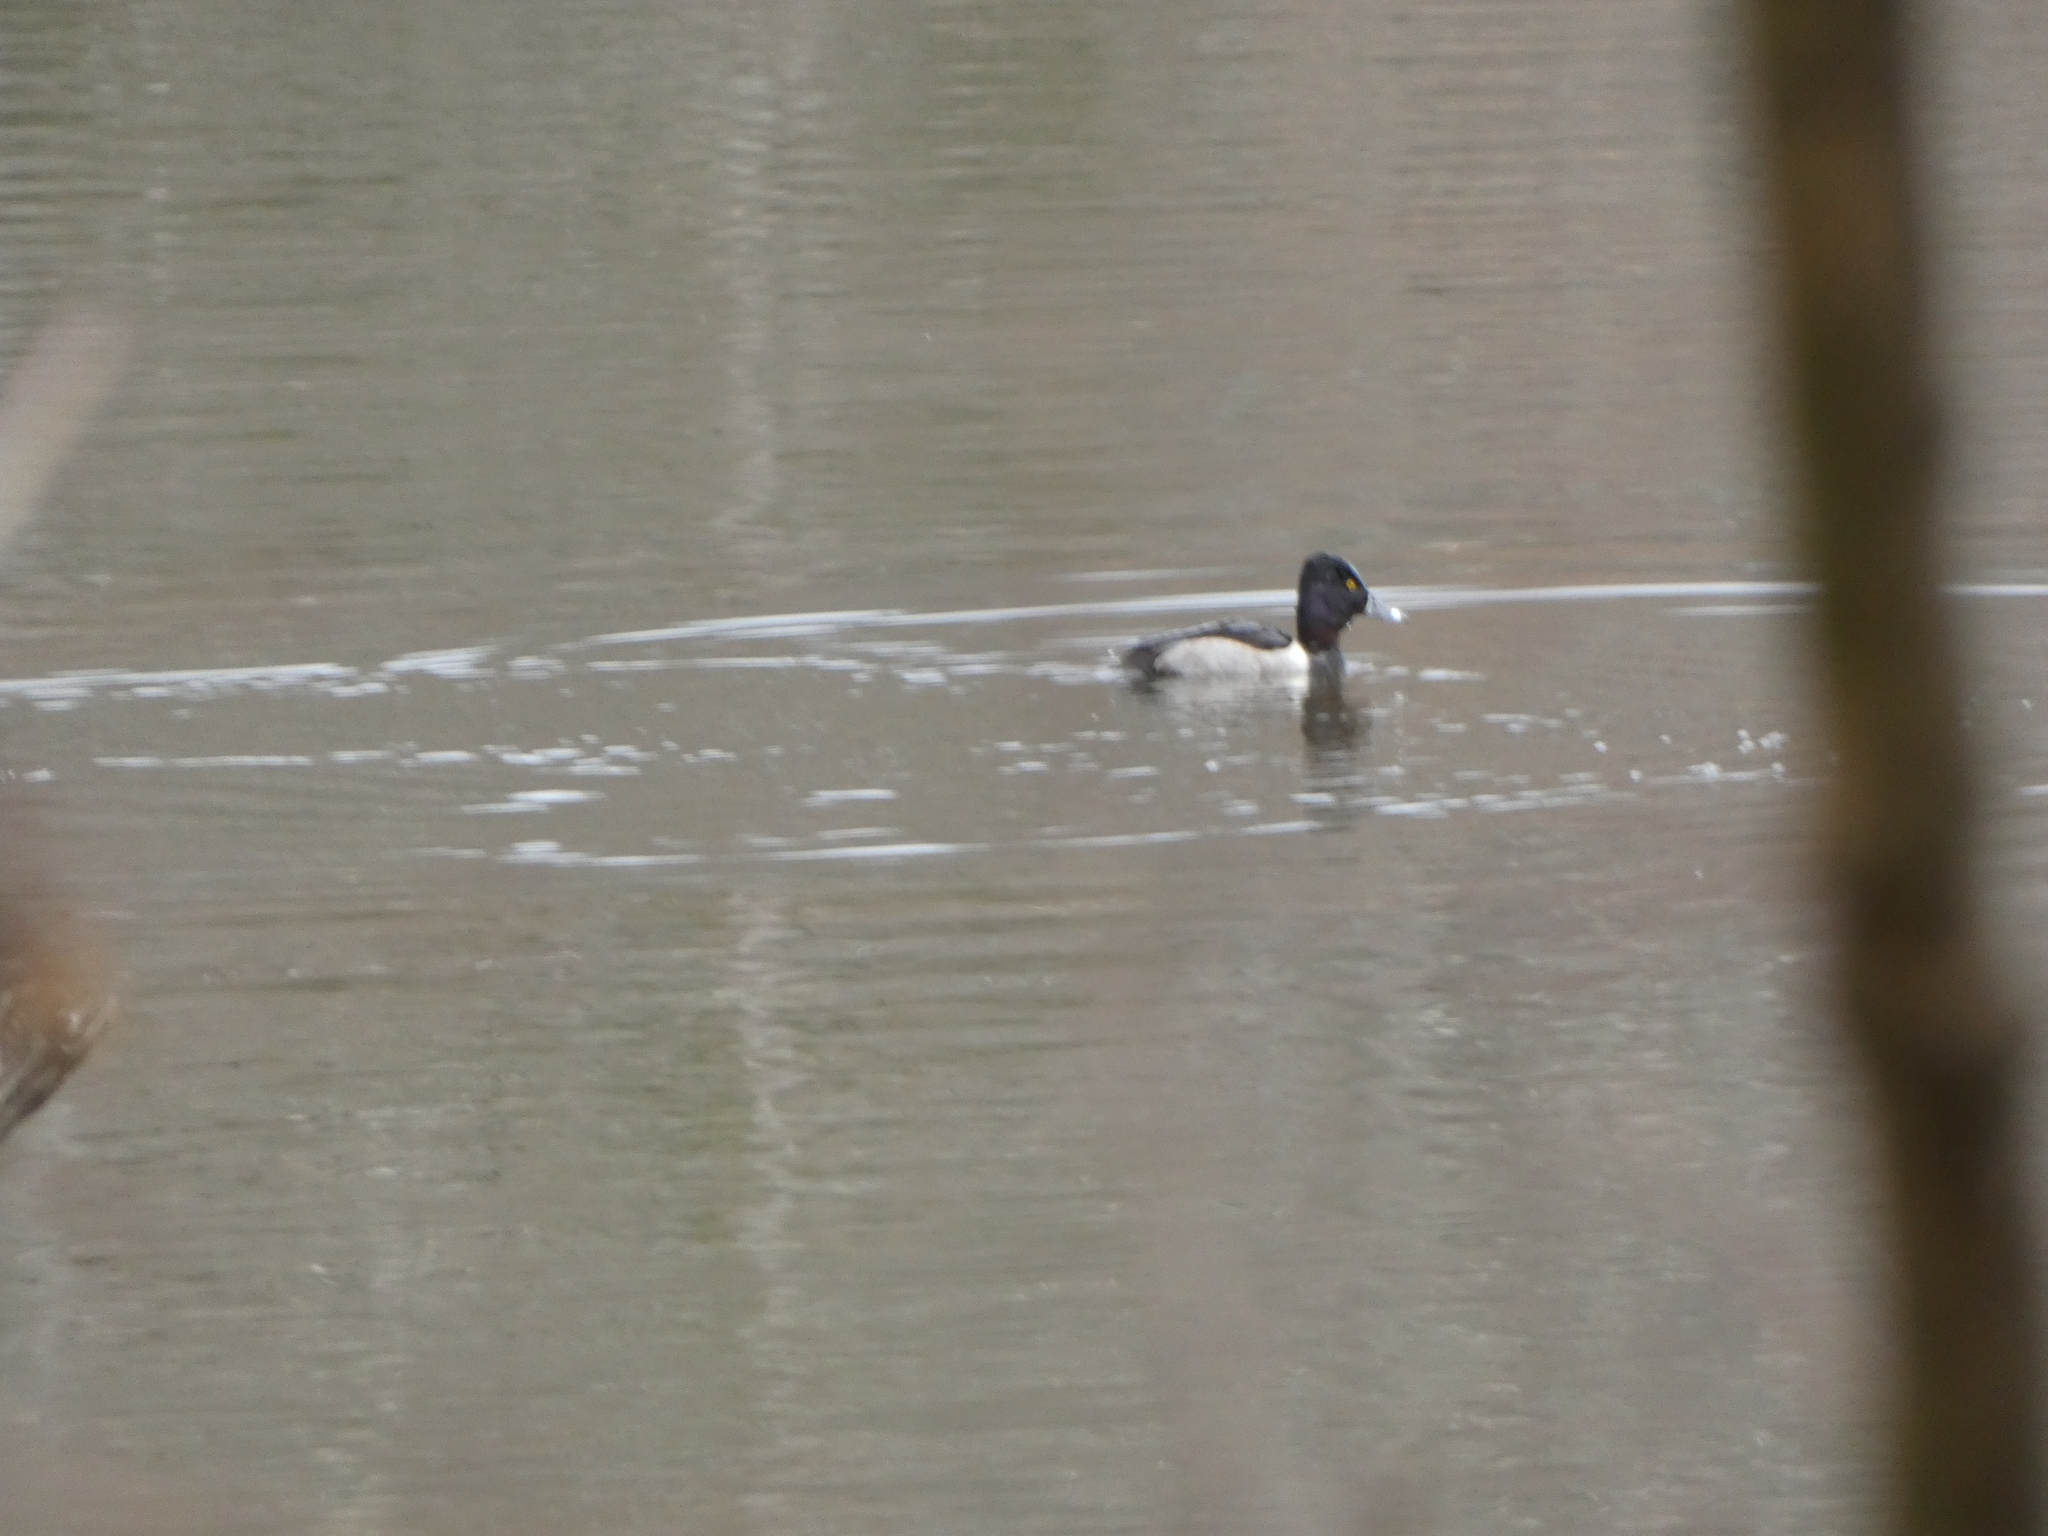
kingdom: Animalia
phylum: Chordata
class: Aves
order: Anseriformes
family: Anatidae
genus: Aythya
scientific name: Aythya collaris
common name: Ring-necked duck
